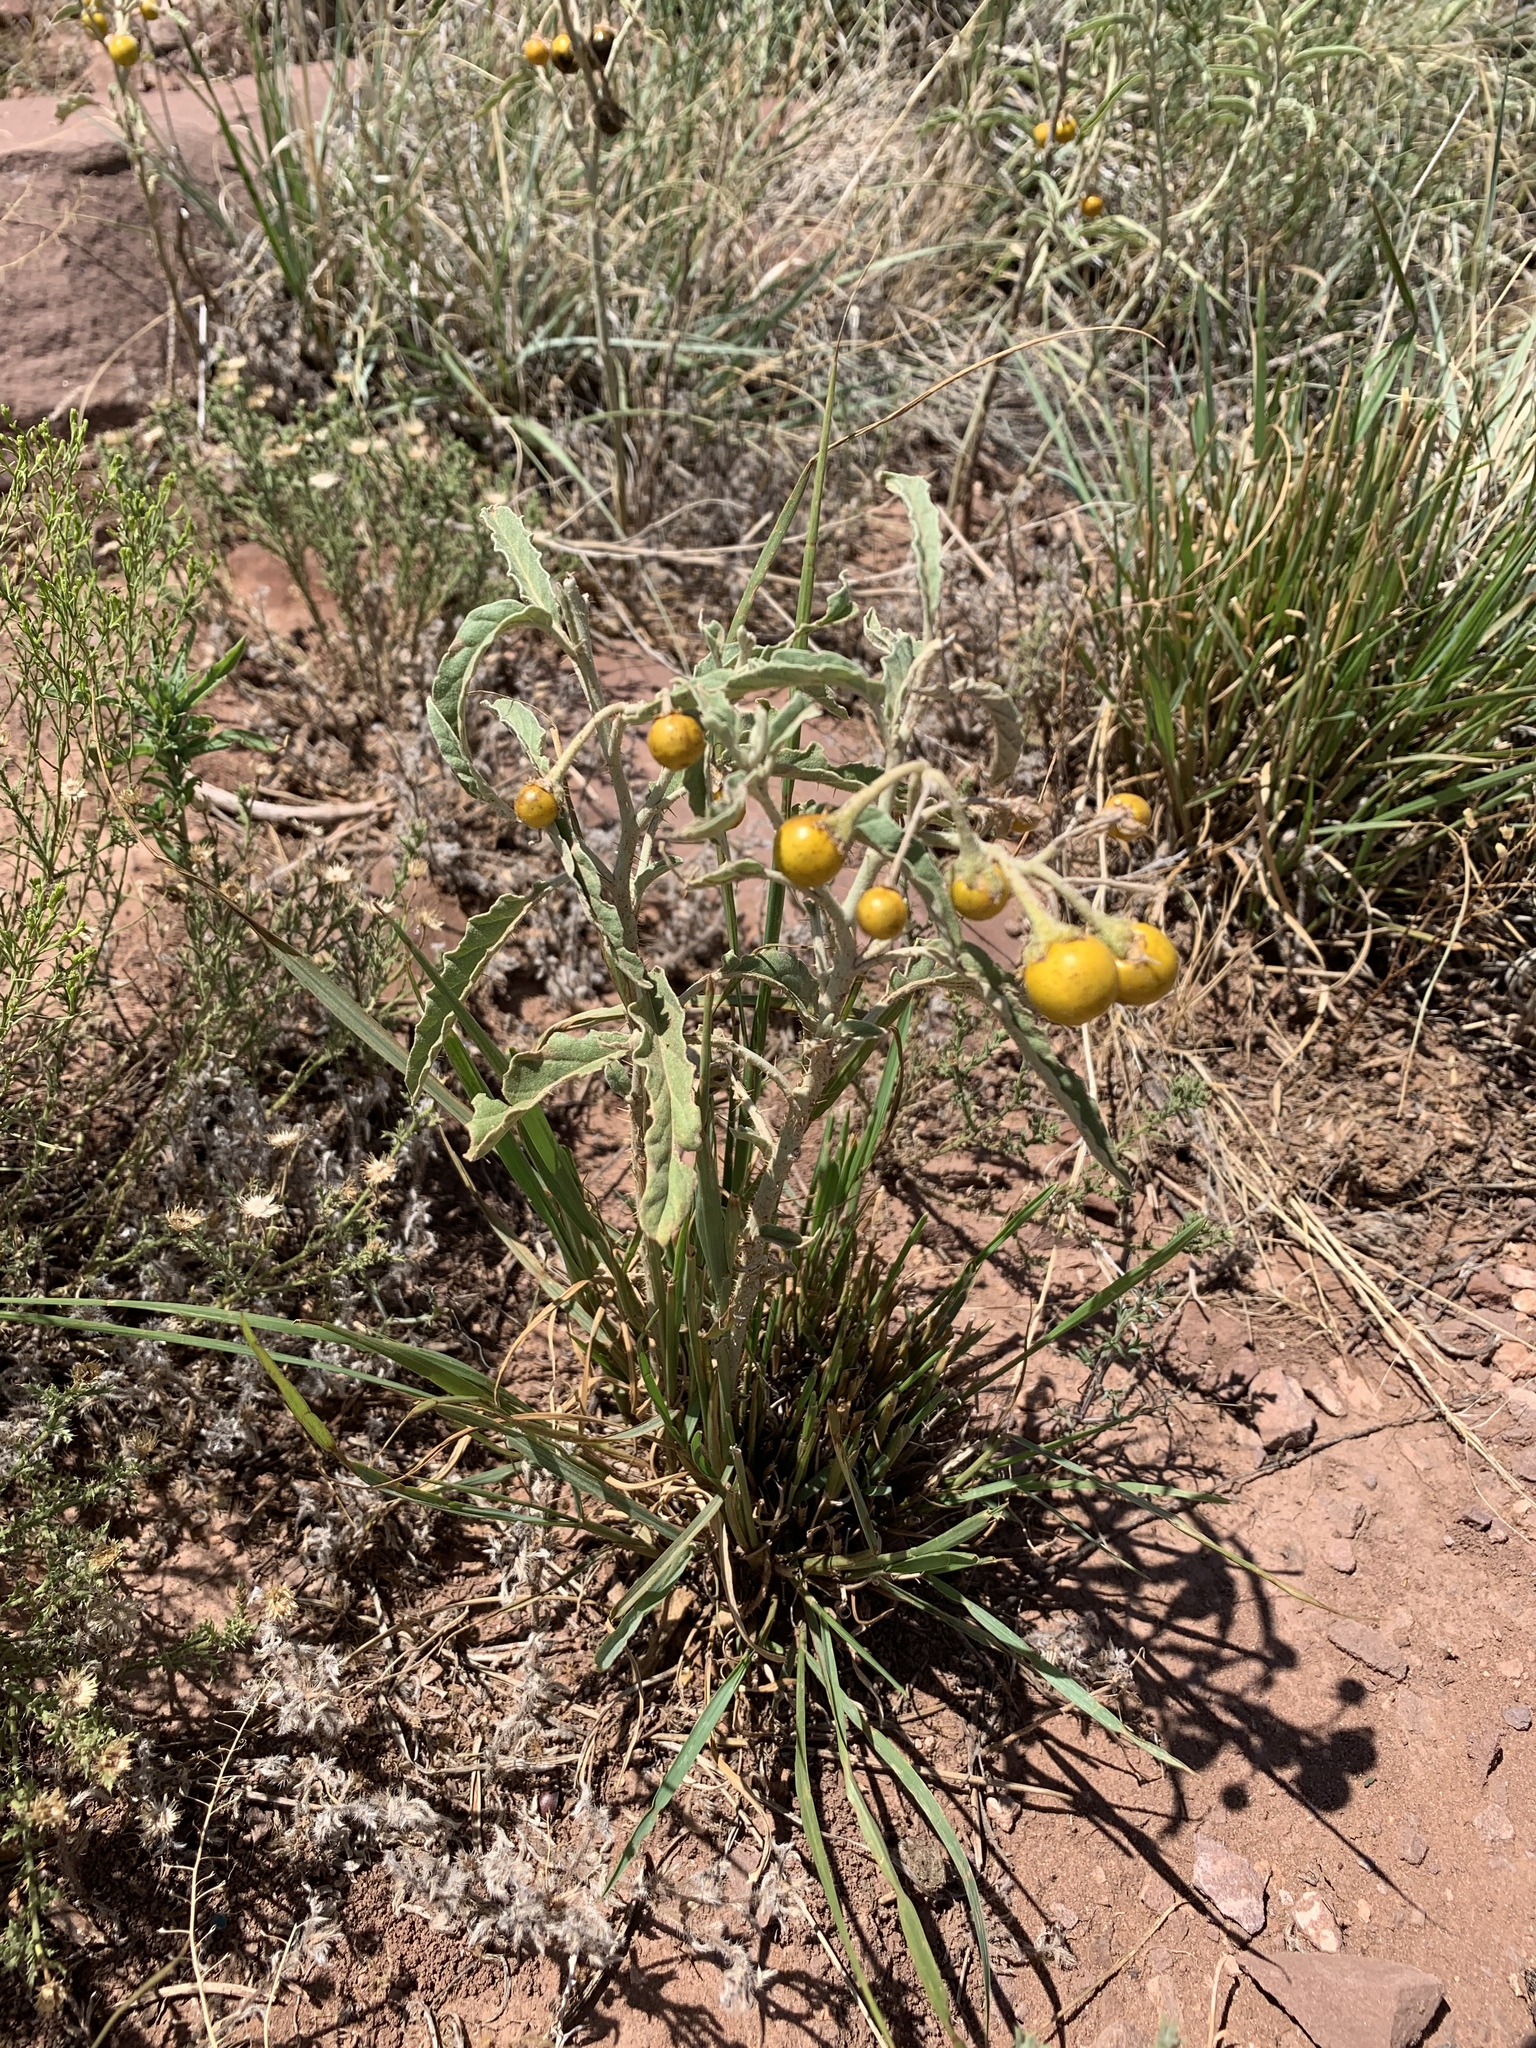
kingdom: Plantae
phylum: Tracheophyta
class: Magnoliopsida
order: Solanales
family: Solanaceae
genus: Solanum
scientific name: Solanum elaeagnifolium
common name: Silverleaf nightshade
